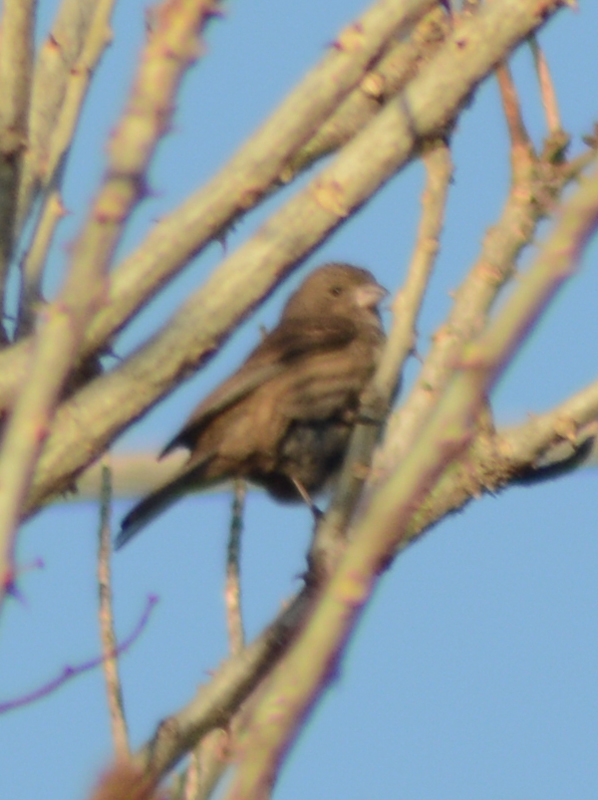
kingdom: Animalia
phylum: Chordata
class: Aves
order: Passeriformes
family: Fringillidae
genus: Haemorhous
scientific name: Haemorhous mexicanus
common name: House finch
